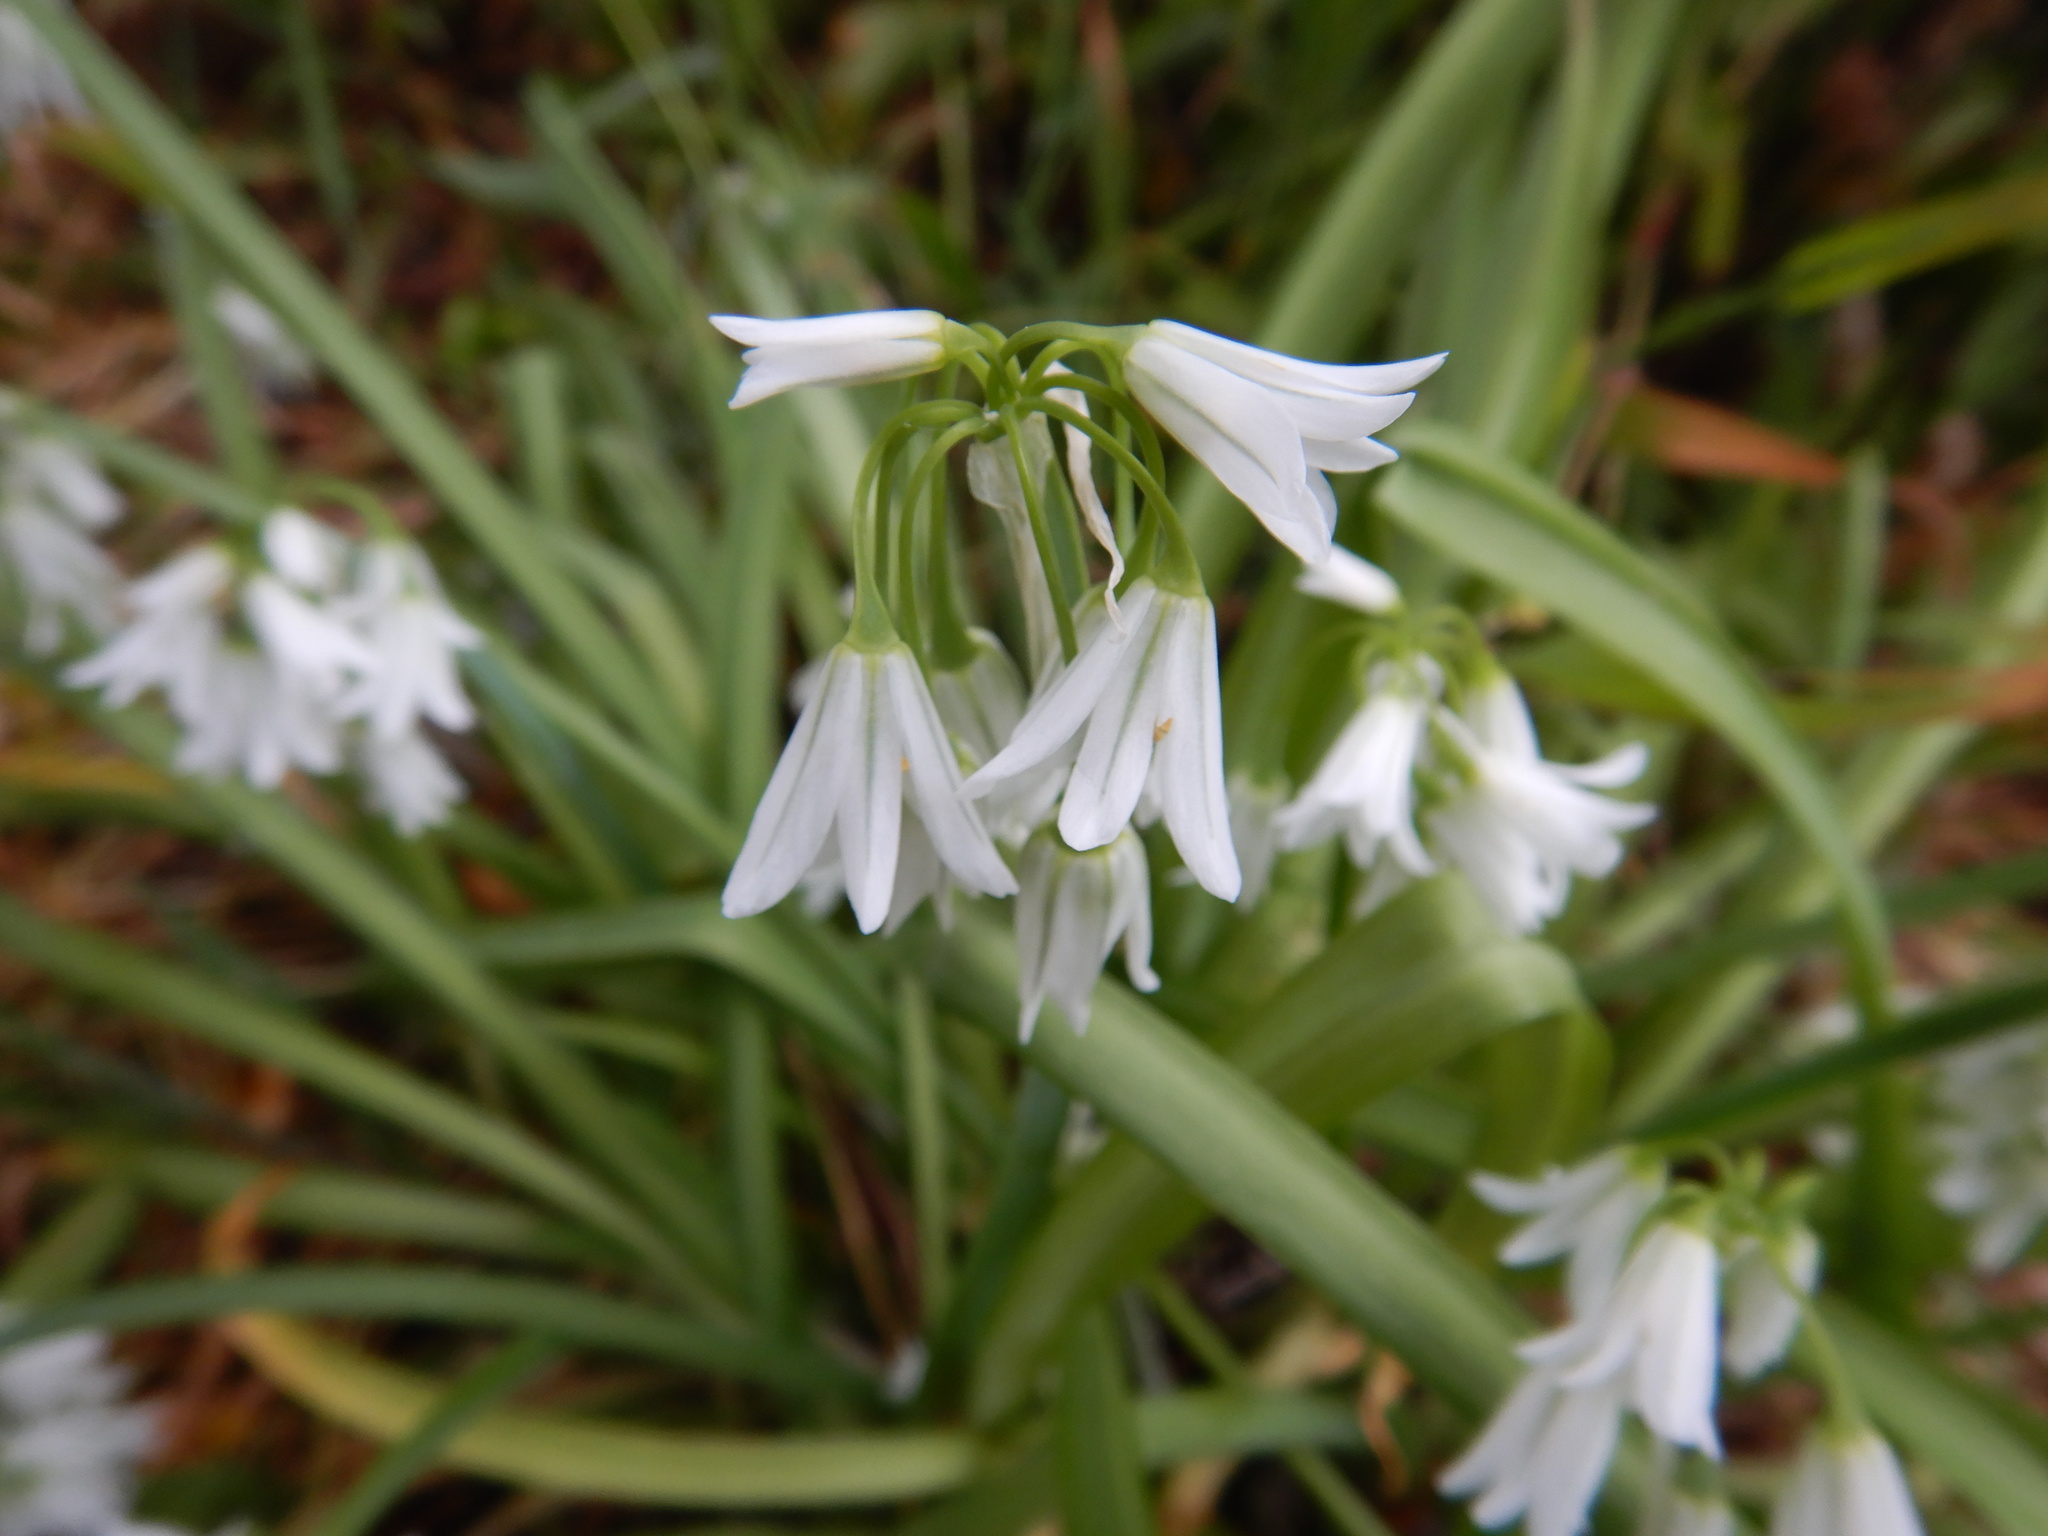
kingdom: Plantae
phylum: Tracheophyta
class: Liliopsida
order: Asparagales
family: Amaryllidaceae
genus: Allium
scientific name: Allium triquetrum
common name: Three-cornered garlic
